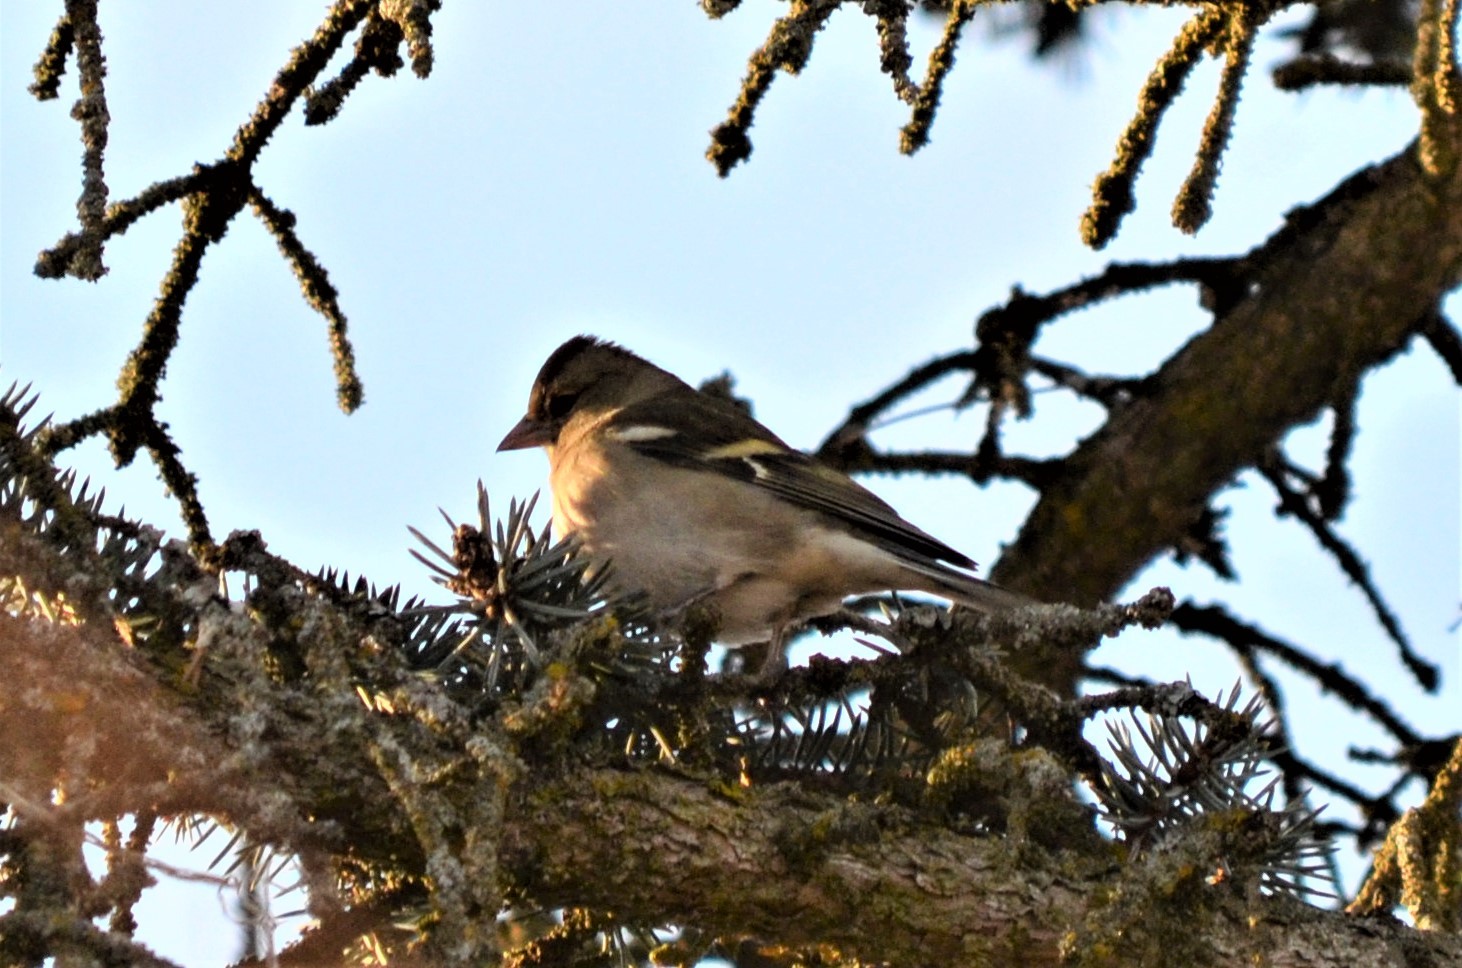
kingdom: Animalia
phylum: Chordata
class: Aves
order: Passeriformes
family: Fringillidae
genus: Fringilla
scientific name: Fringilla coelebs
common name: Common chaffinch
